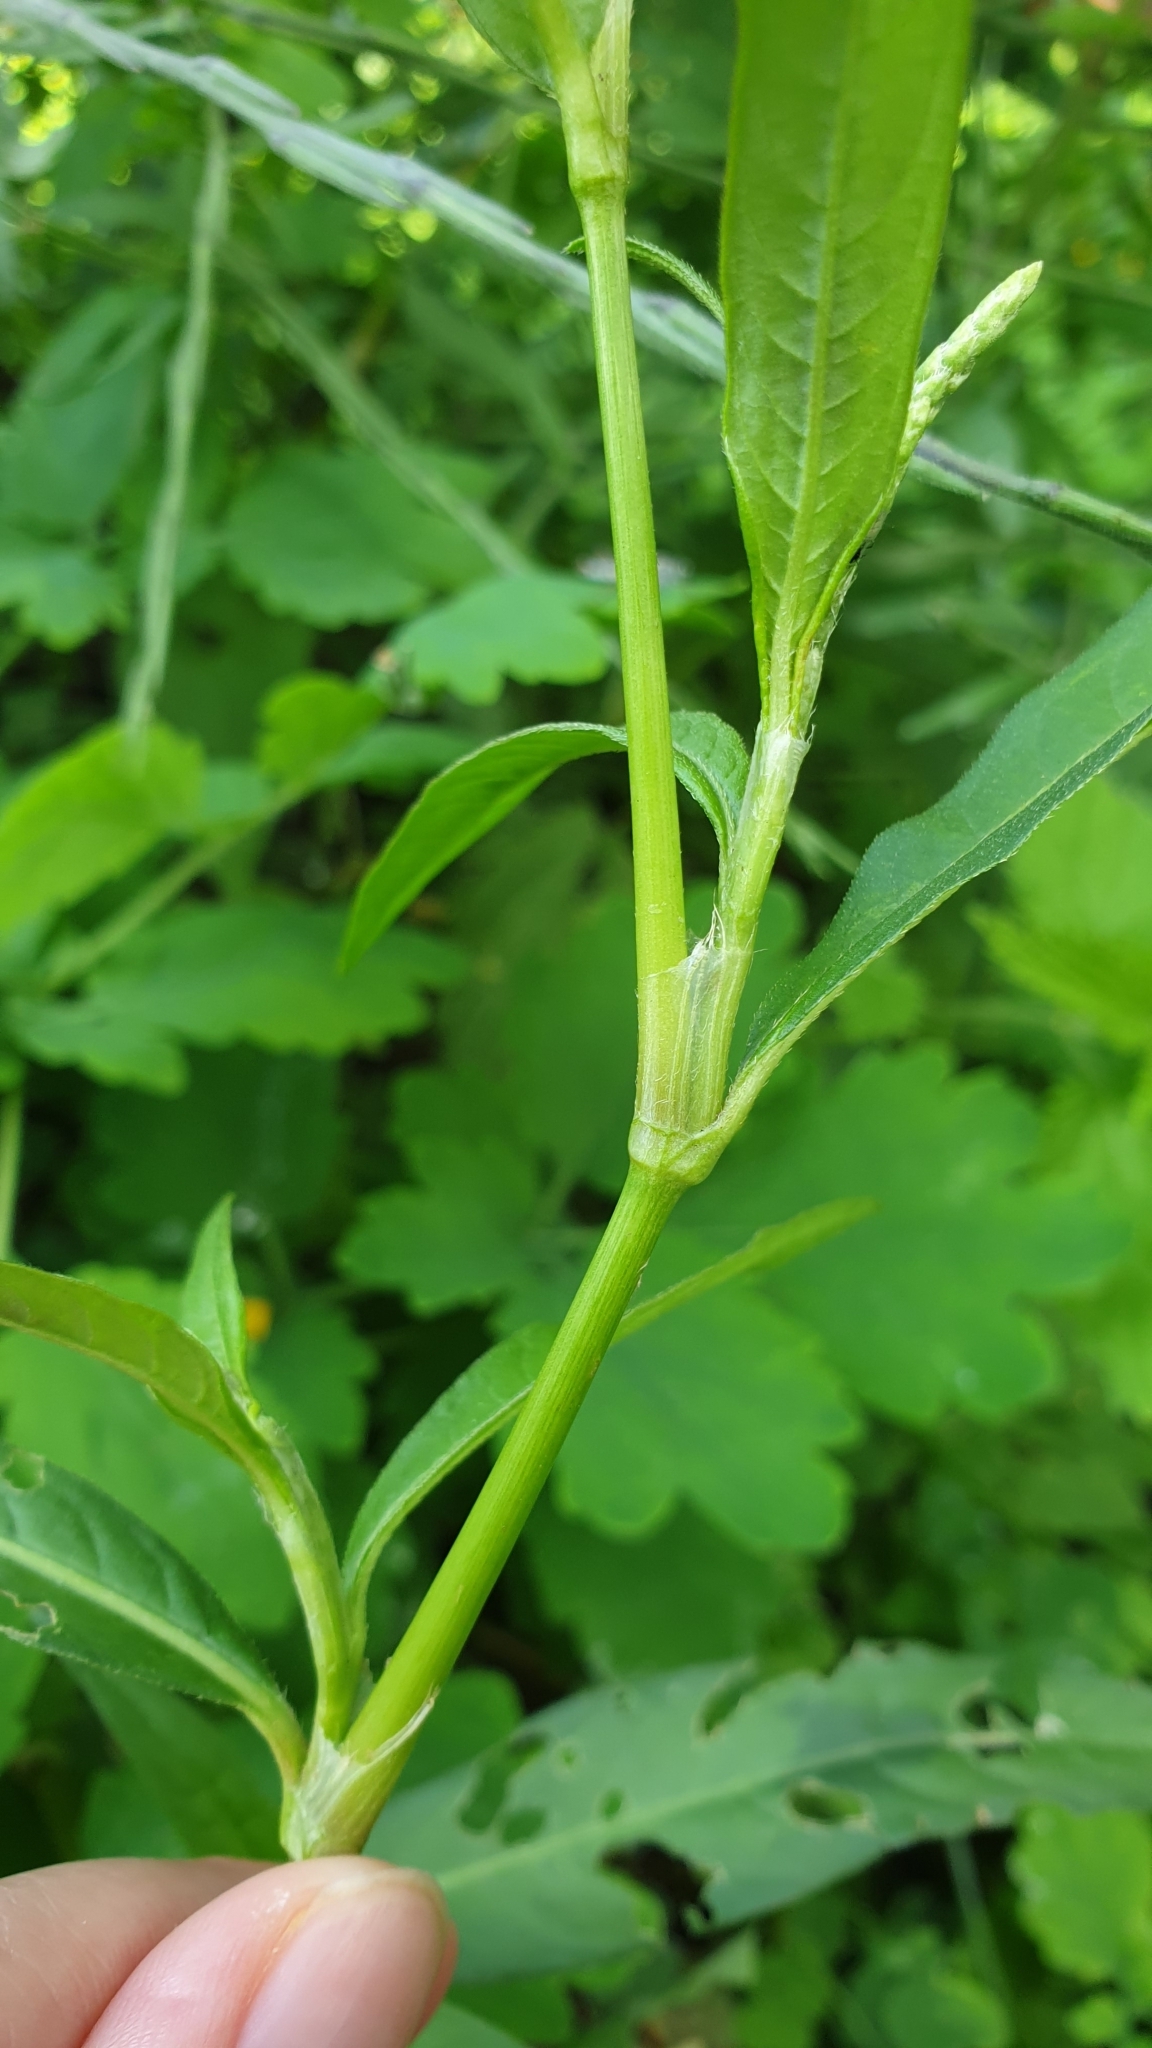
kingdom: Plantae
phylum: Tracheophyta
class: Magnoliopsida
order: Caryophyllales
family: Polygonaceae
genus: Persicaria
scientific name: Persicaria maculosa
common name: Redshank
